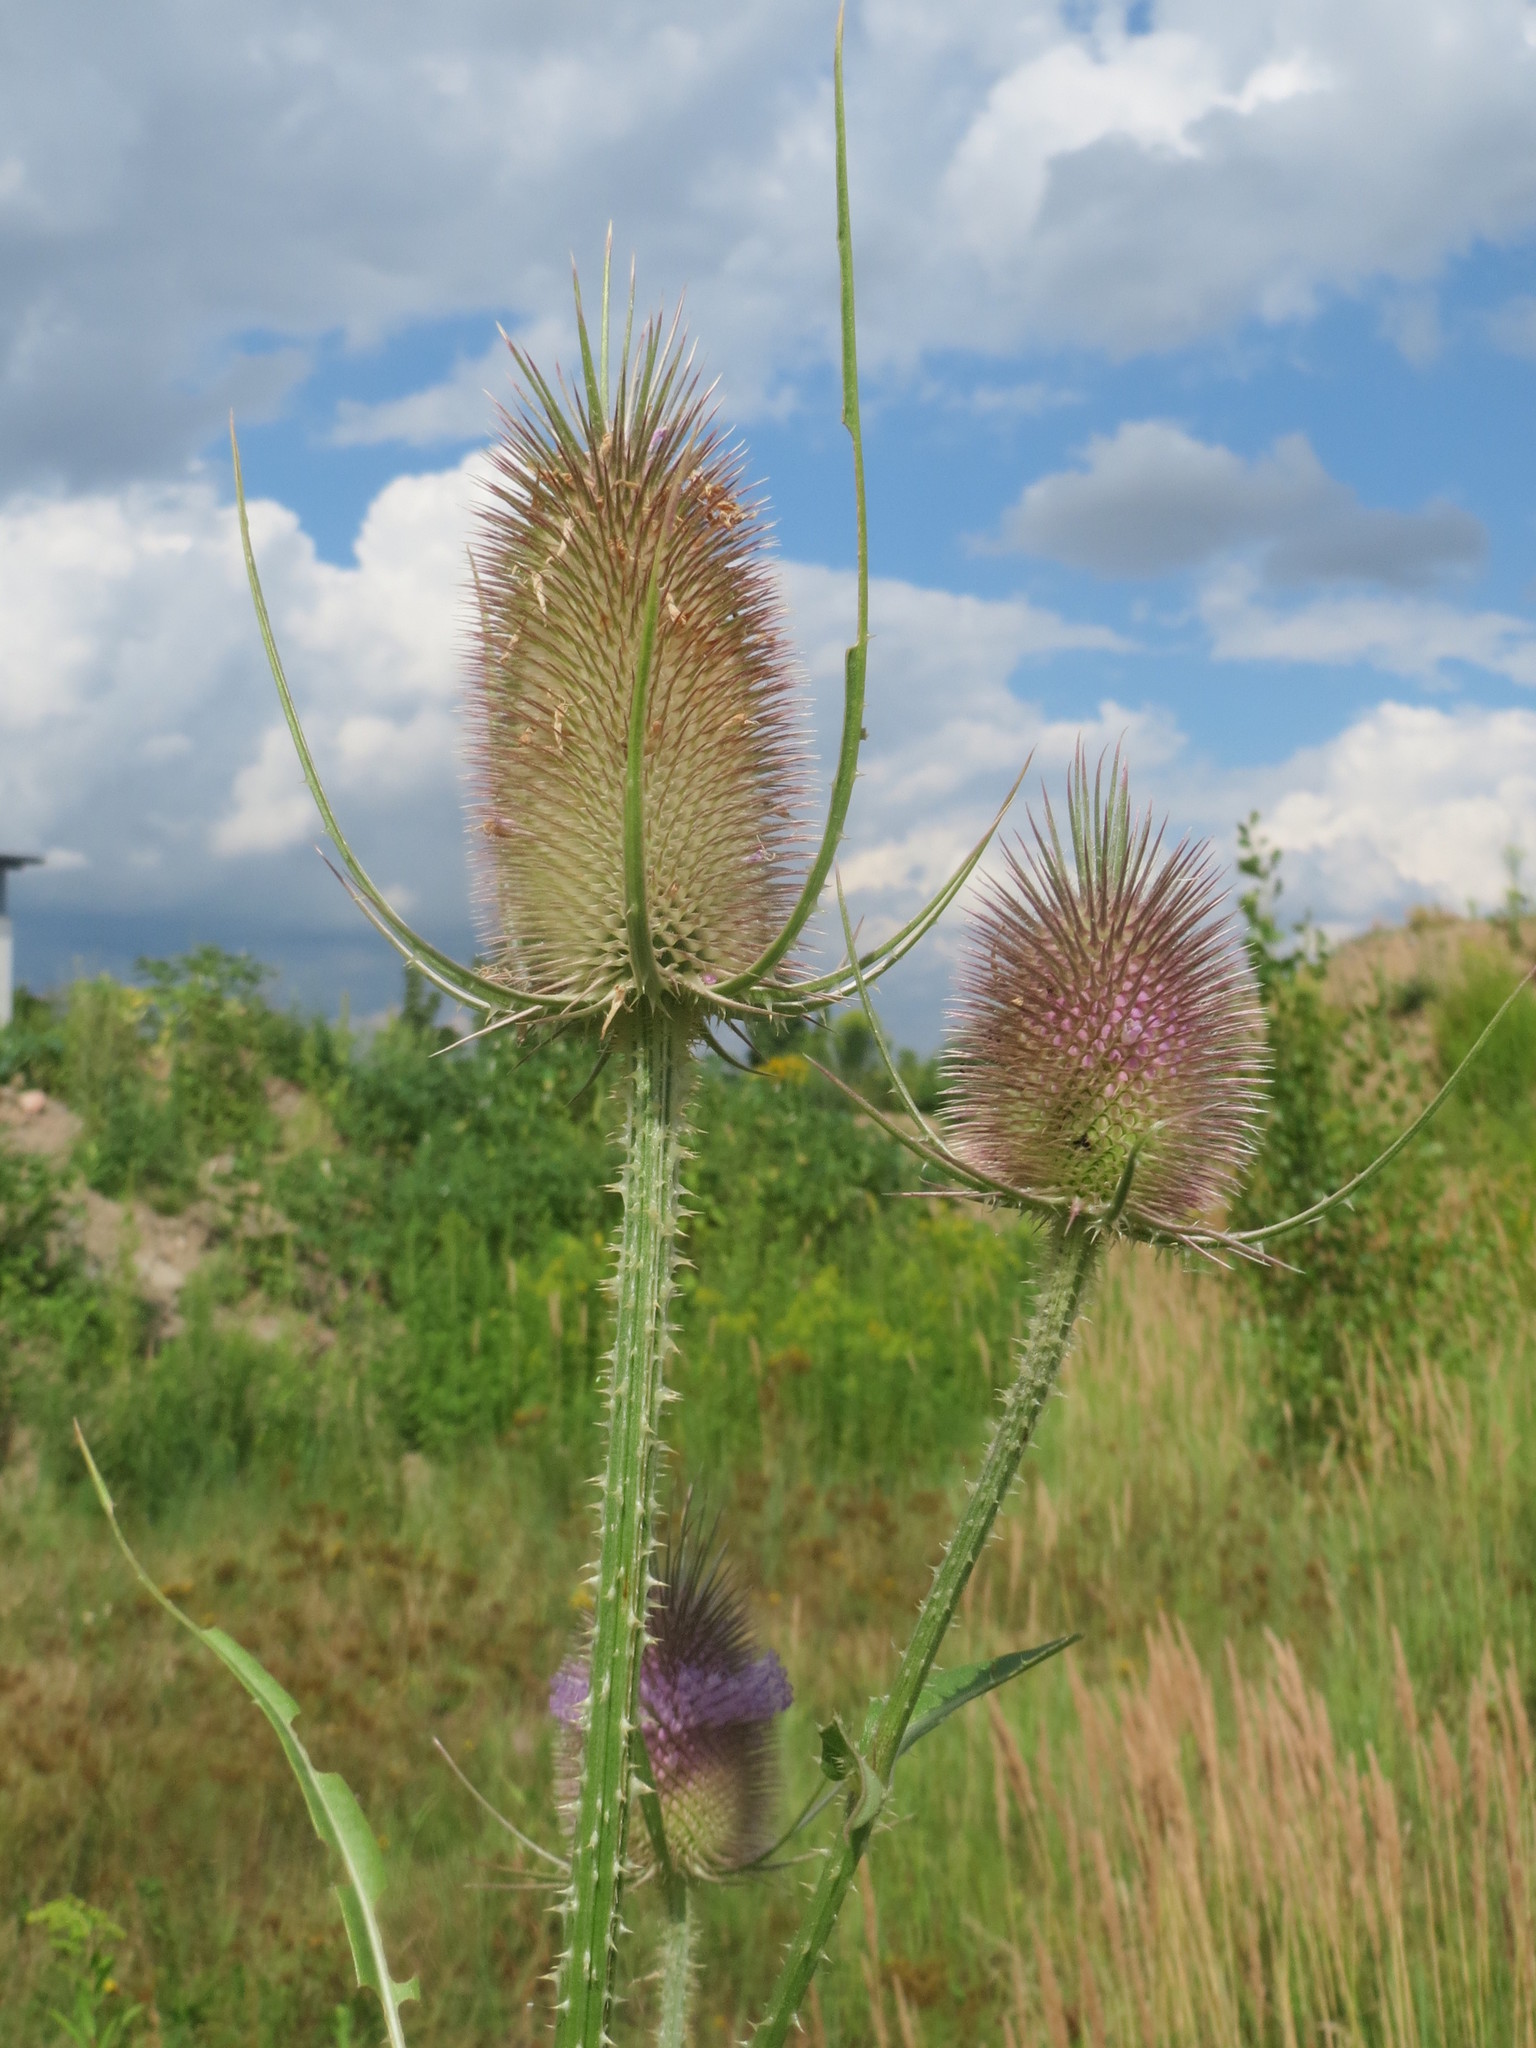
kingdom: Plantae
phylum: Tracheophyta
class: Magnoliopsida
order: Dipsacales
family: Caprifoliaceae
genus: Dipsacus
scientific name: Dipsacus fullonum
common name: Teasel
